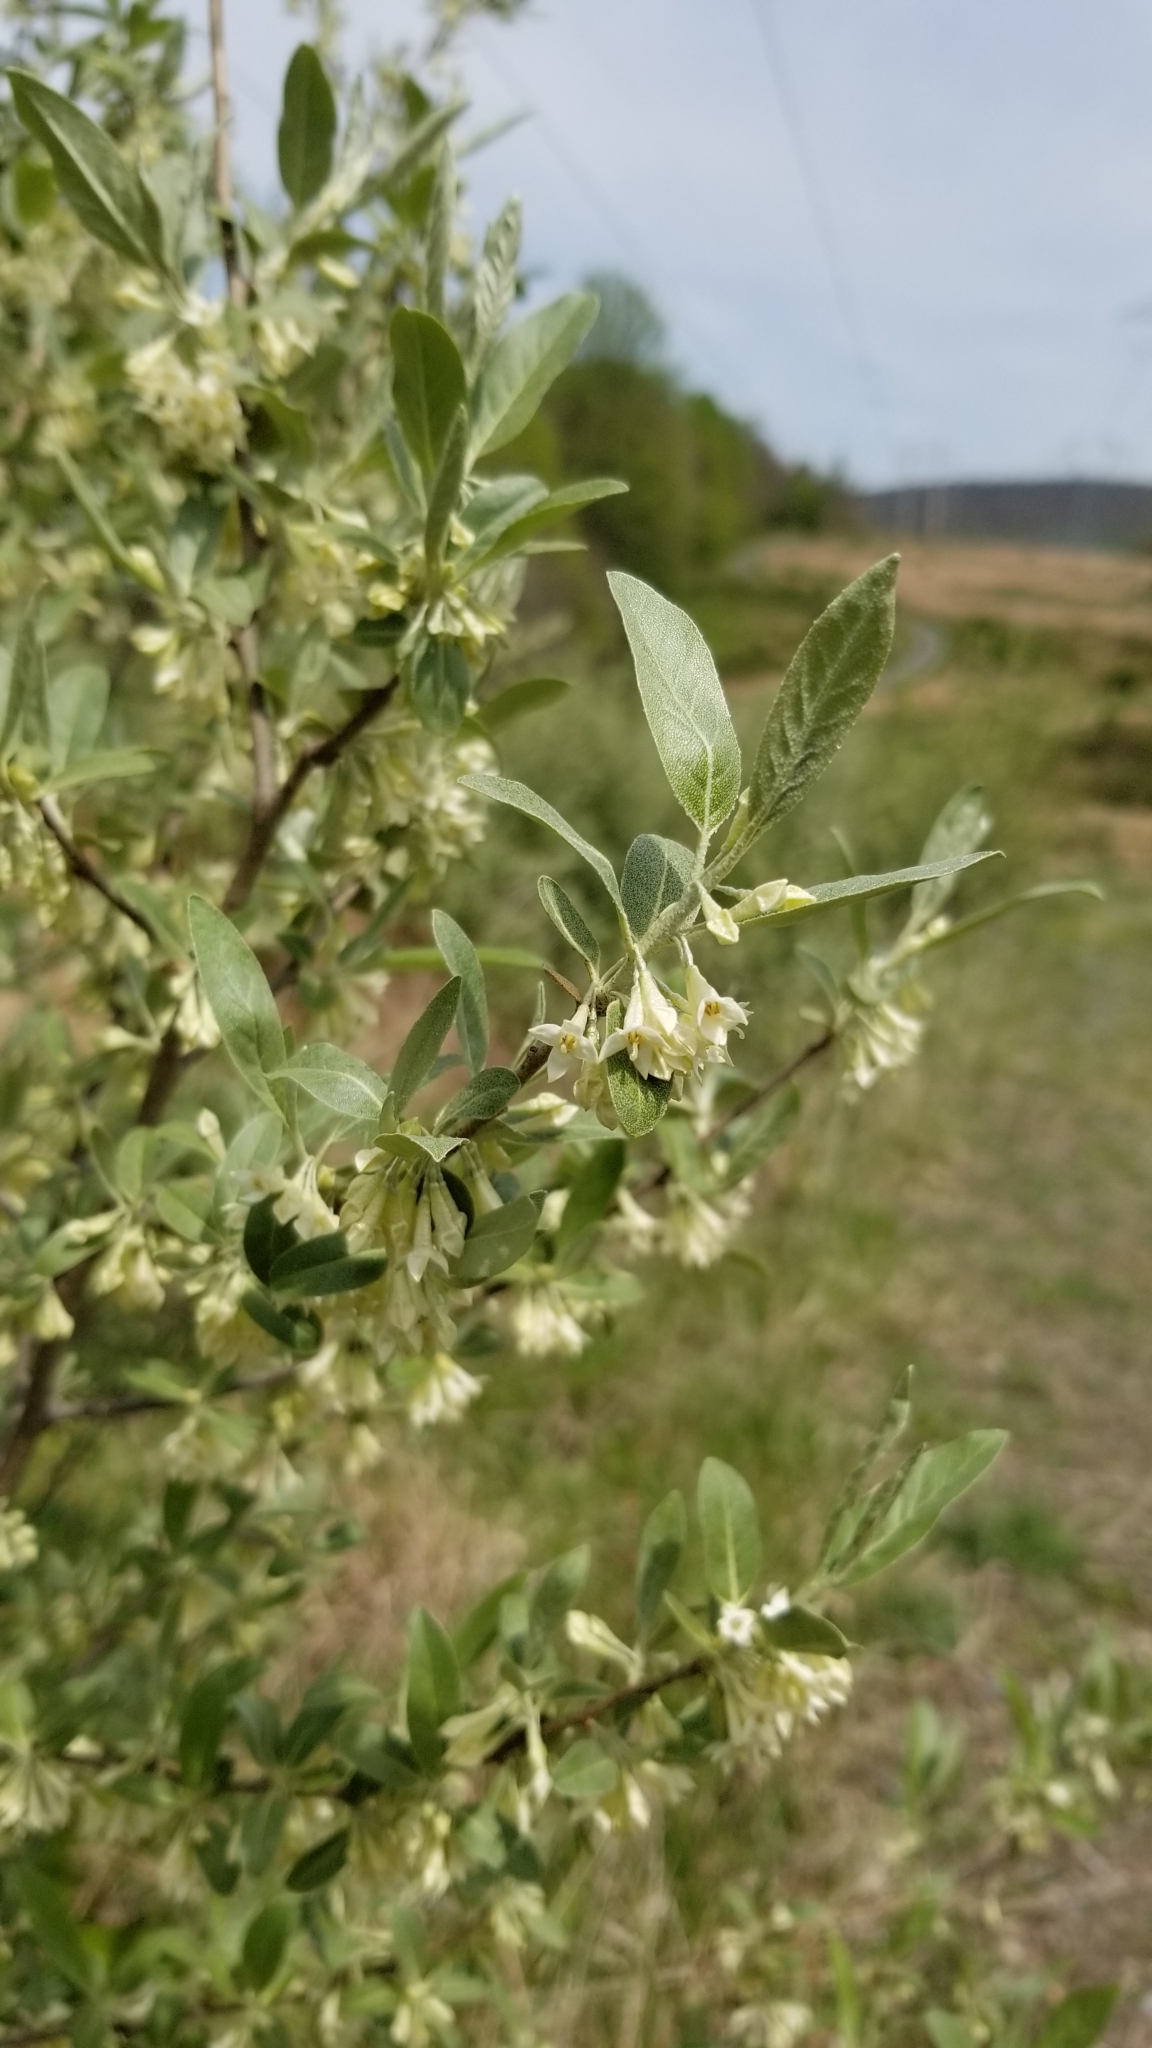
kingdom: Plantae
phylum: Tracheophyta
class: Magnoliopsida
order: Rosales
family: Elaeagnaceae
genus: Elaeagnus
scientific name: Elaeagnus umbellata
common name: Autumn olive
